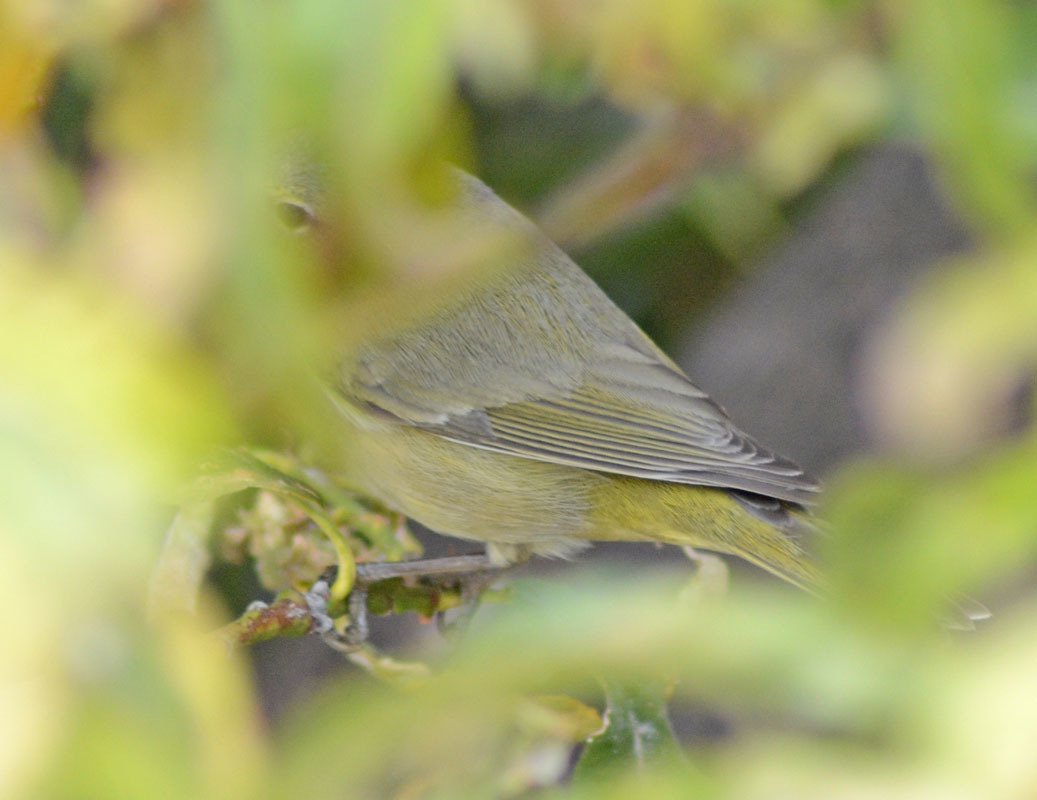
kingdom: Animalia
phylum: Chordata
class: Aves
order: Passeriformes
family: Parulidae
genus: Leiothlypis
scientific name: Leiothlypis celata
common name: Orange-crowned warbler
